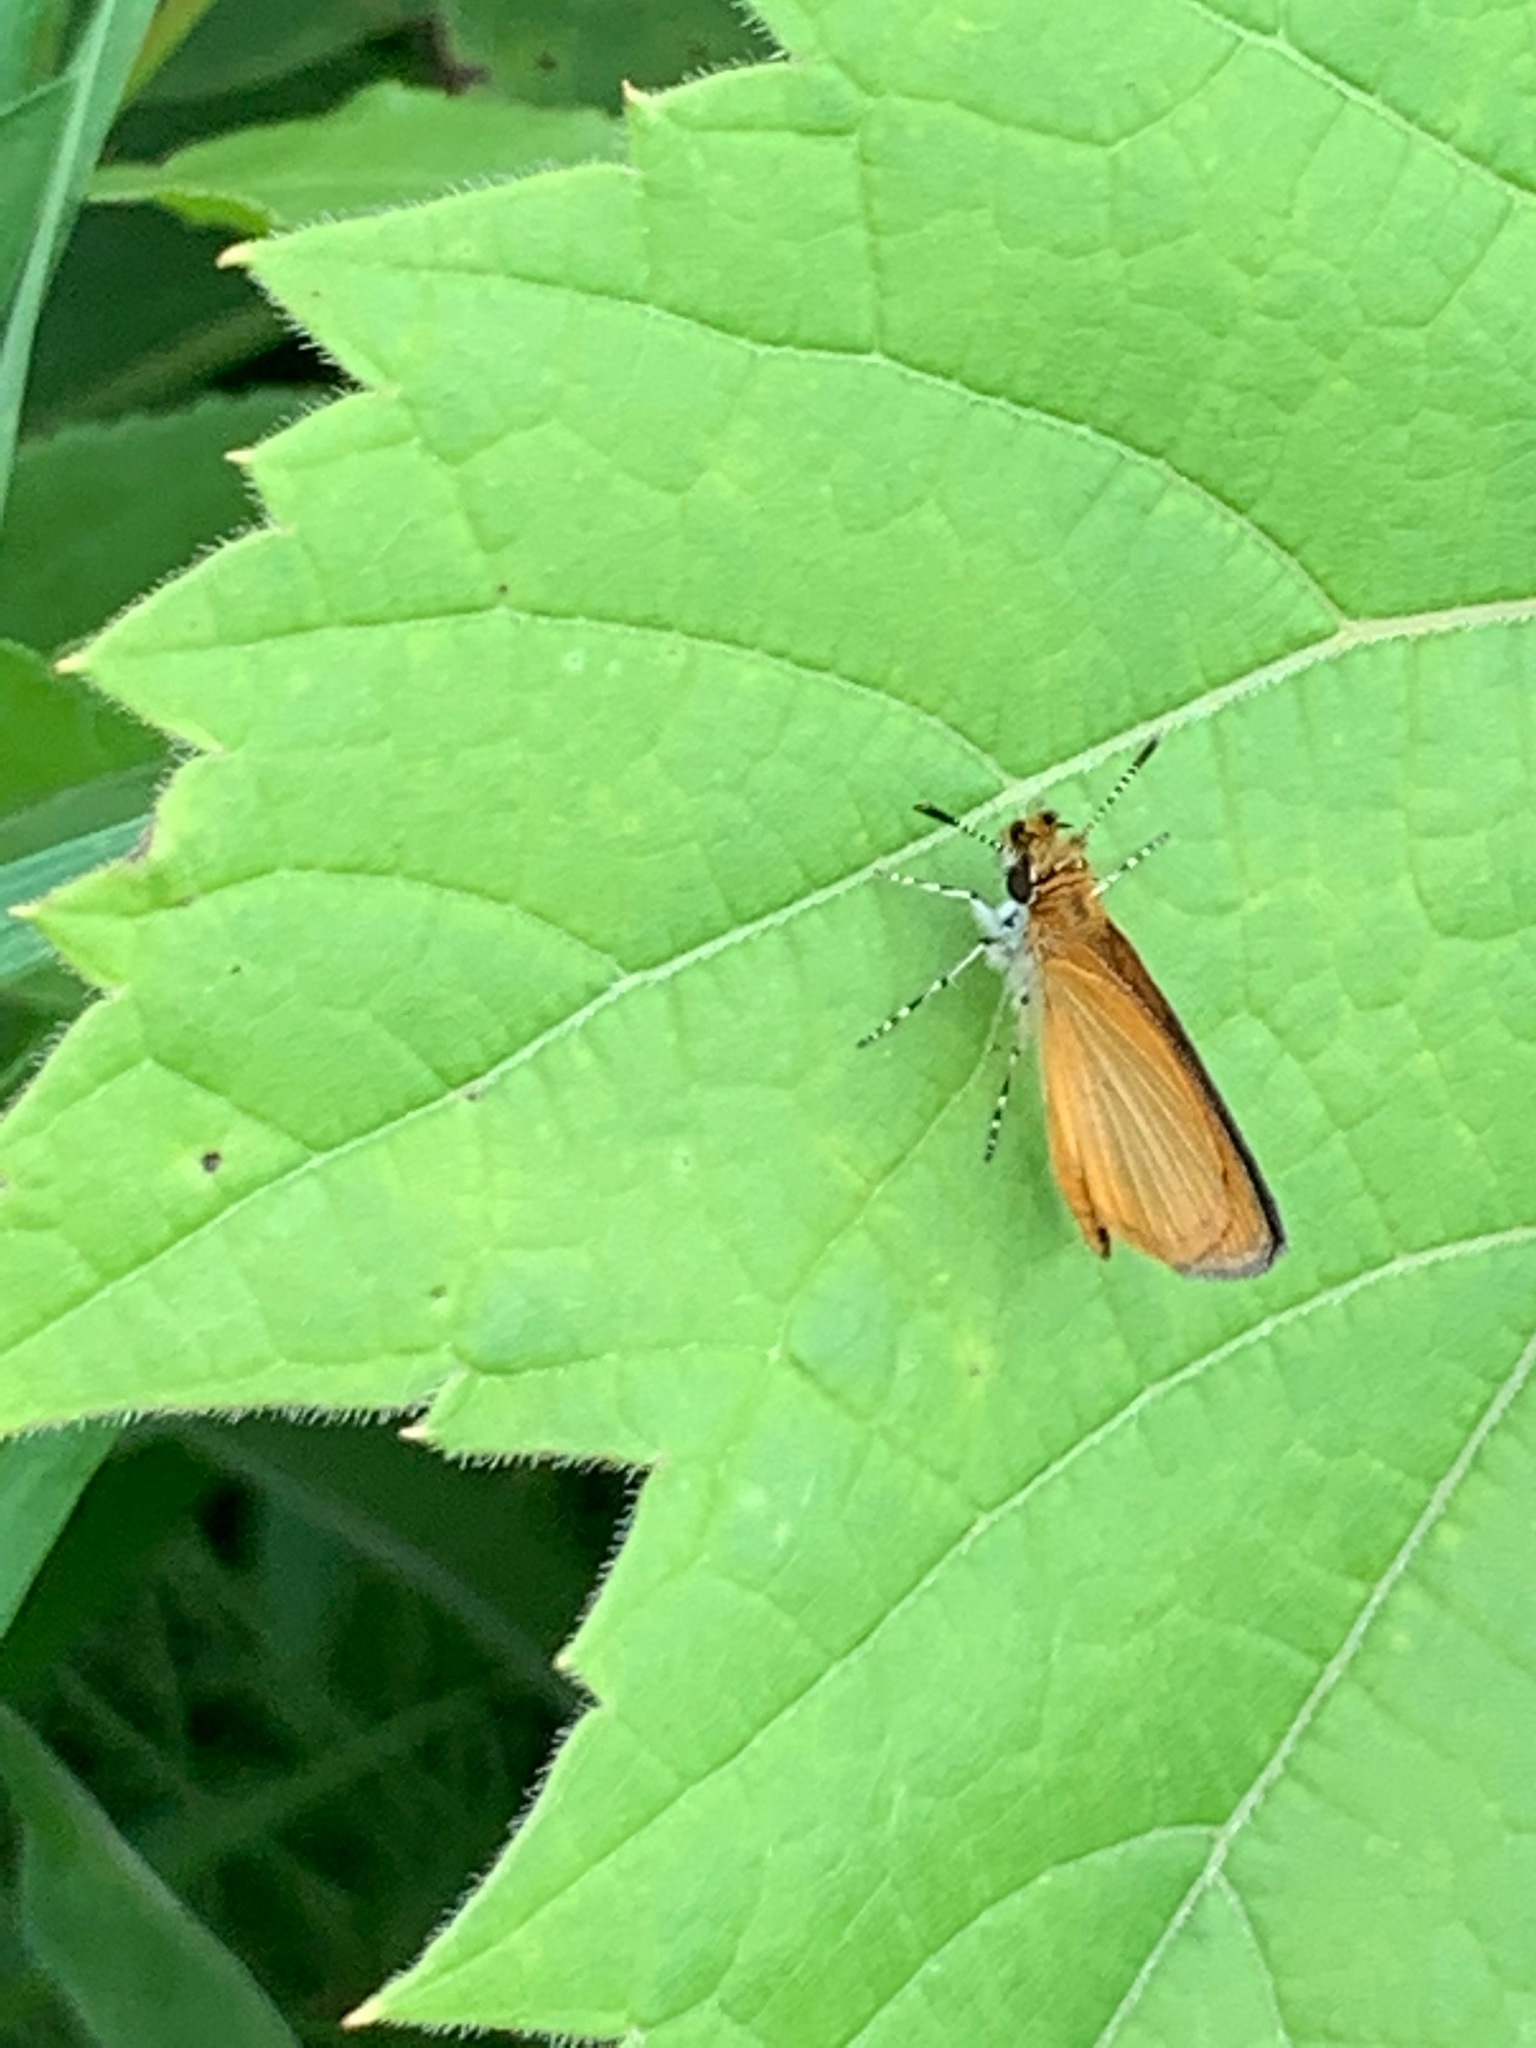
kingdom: Animalia
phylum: Arthropoda
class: Insecta
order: Lepidoptera
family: Hesperiidae
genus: Ancyloxypha
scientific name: Ancyloxypha numitor
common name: Least skipper
